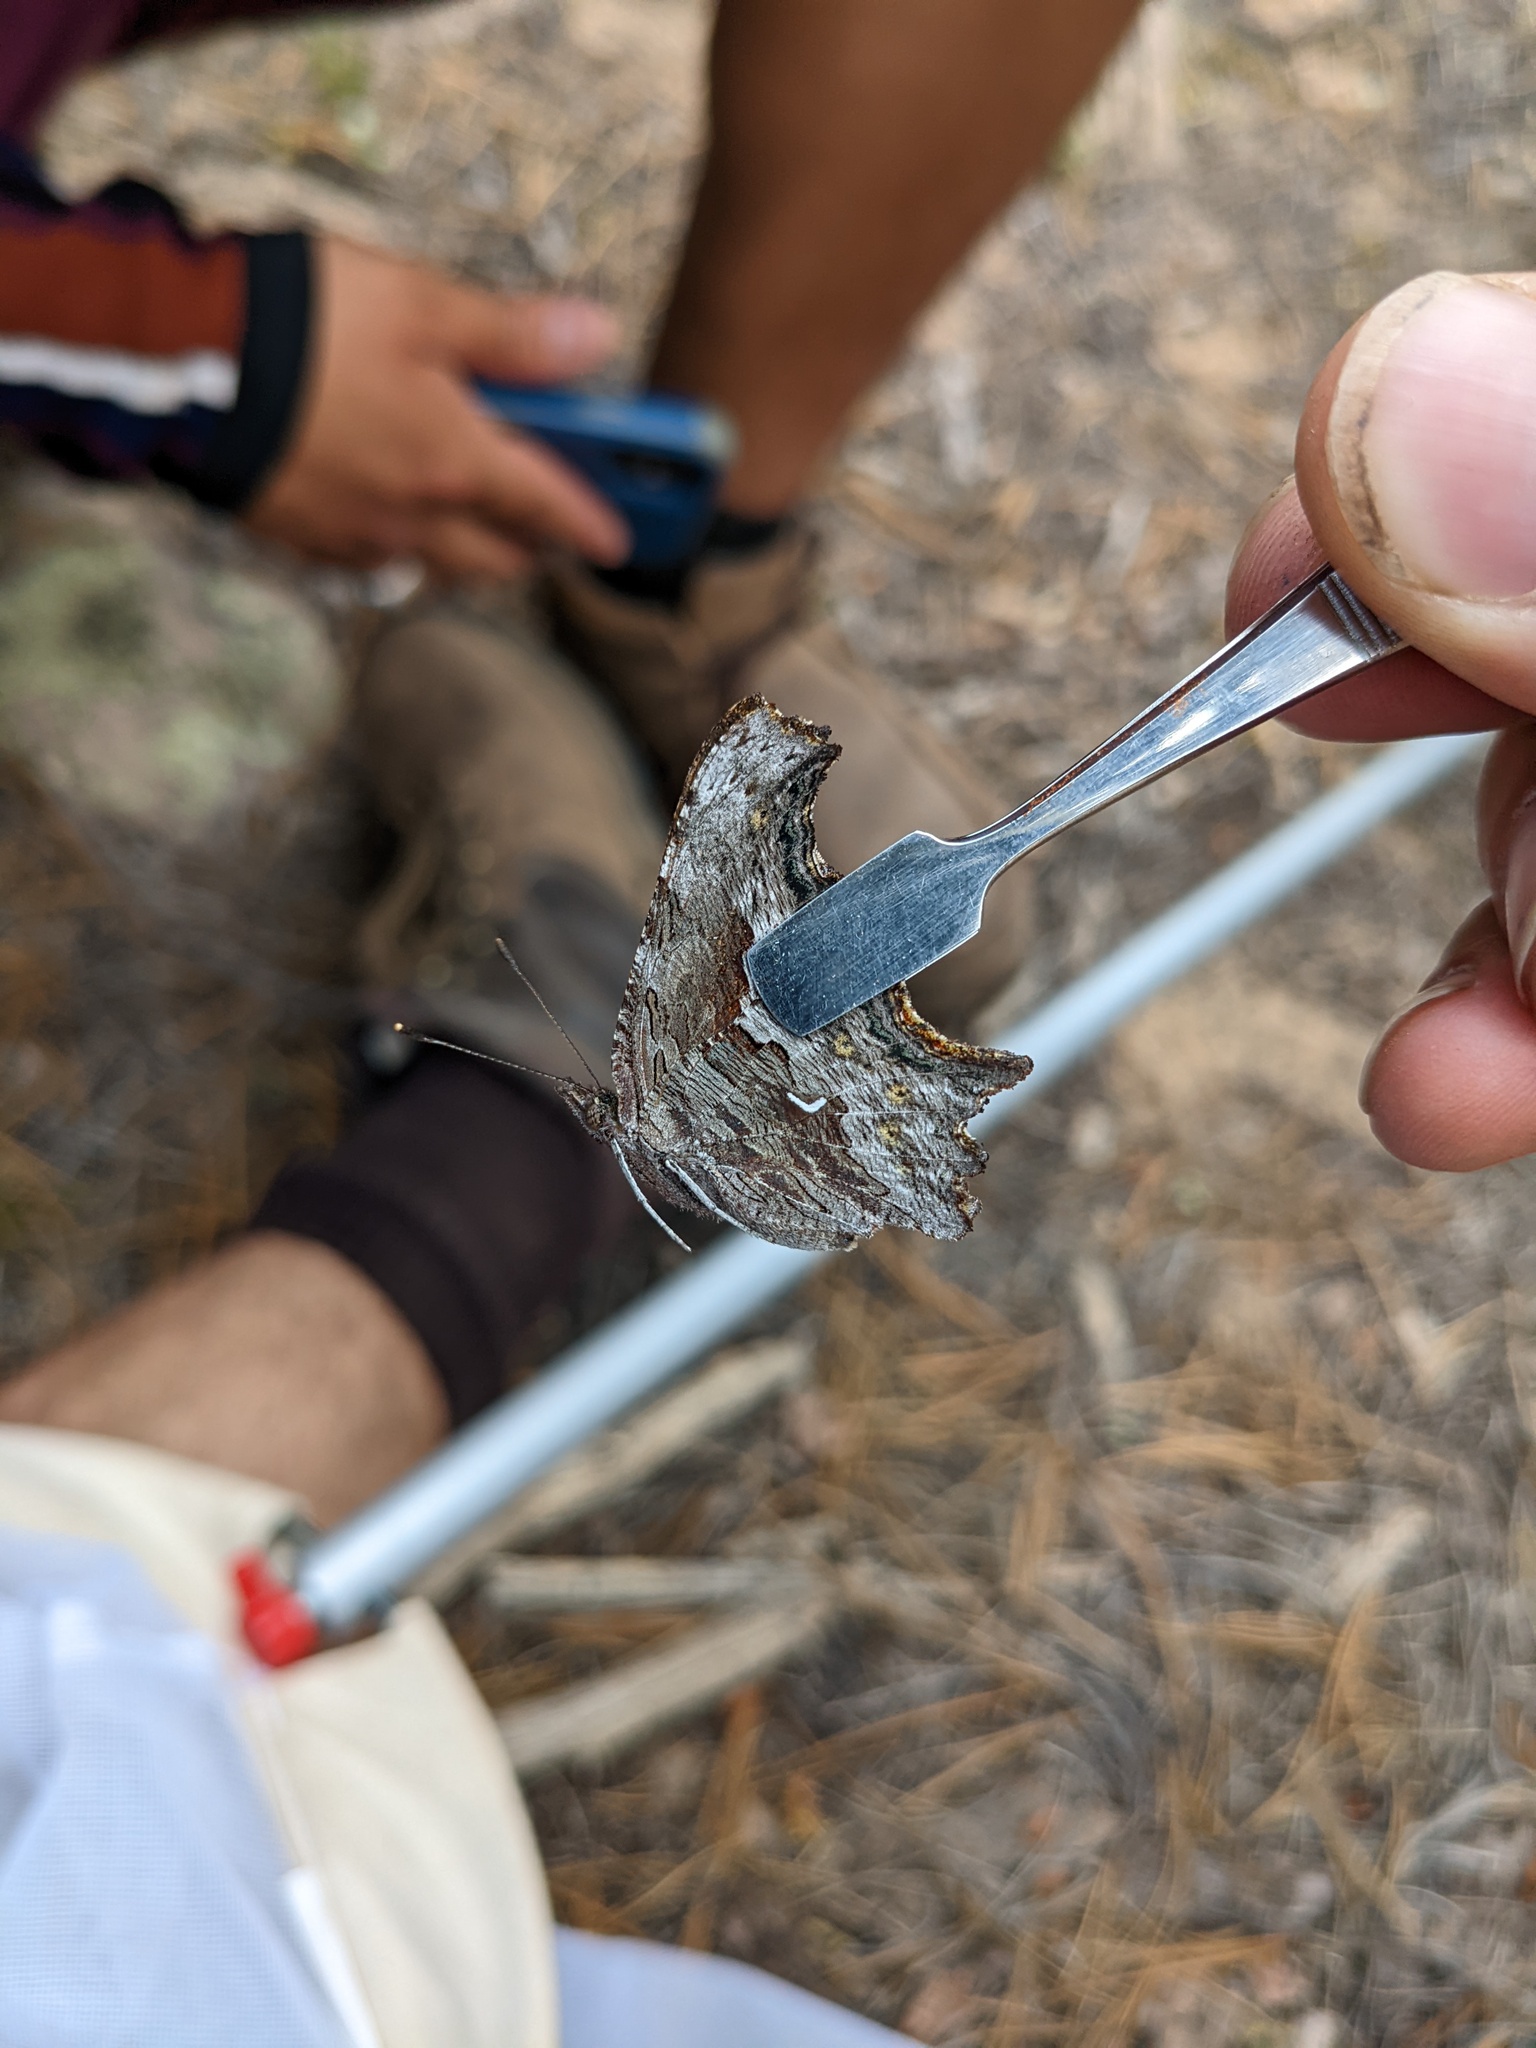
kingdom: Animalia
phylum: Arthropoda
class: Insecta
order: Lepidoptera
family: Nymphalidae
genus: Polygonia
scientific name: Polygonia gracilis
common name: Hoary comma
